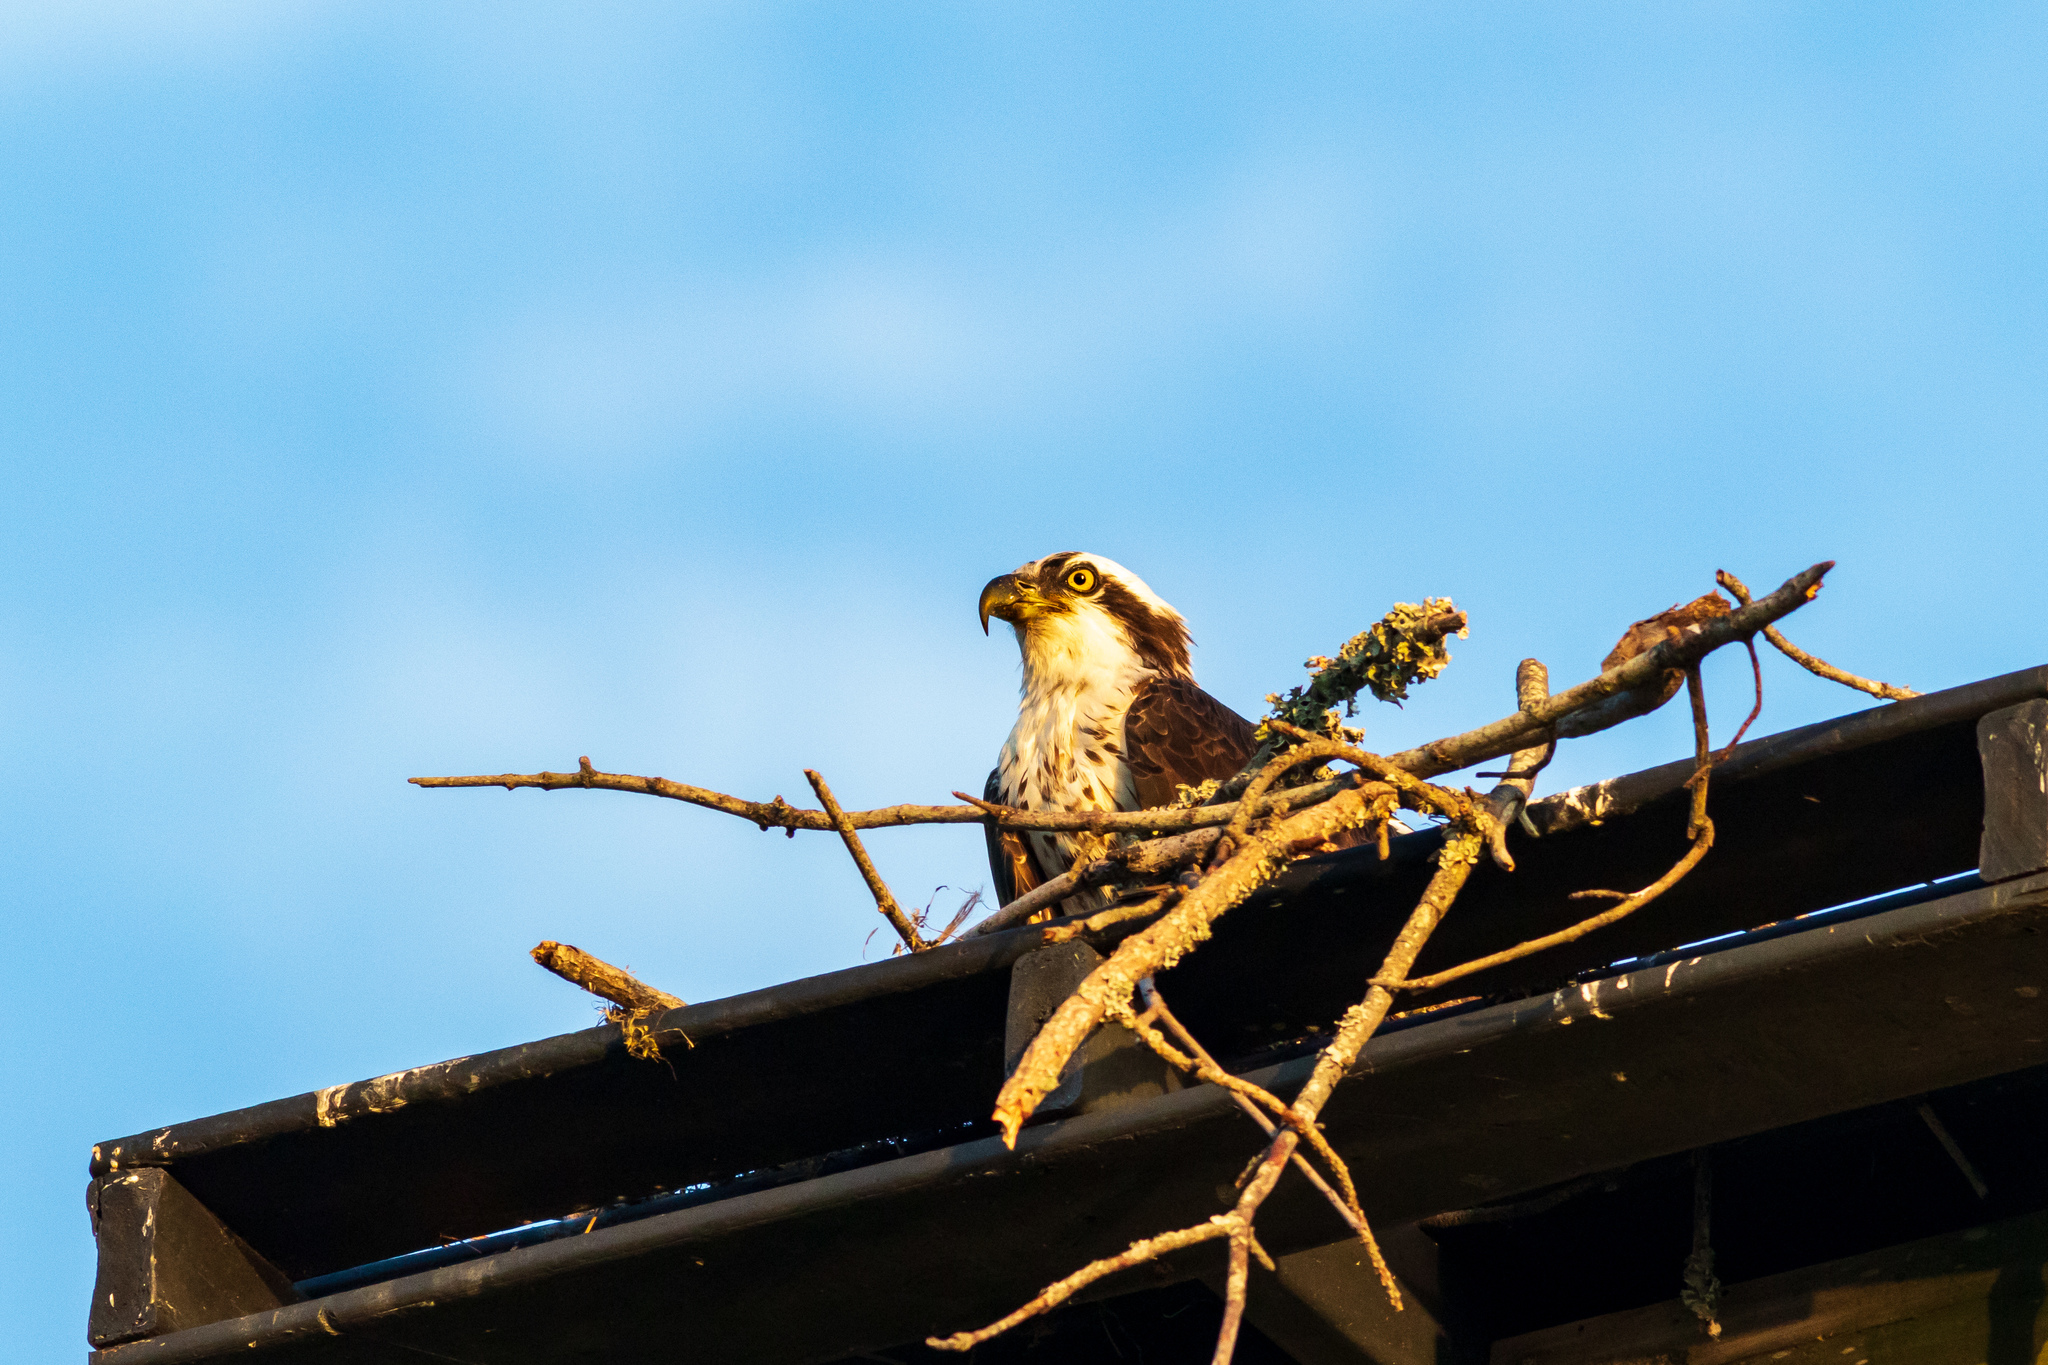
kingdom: Animalia
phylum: Chordata
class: Aves
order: Accipitriformes
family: Pandionidae
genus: Pandion
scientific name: Pandion haliaetus
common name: Osprey
